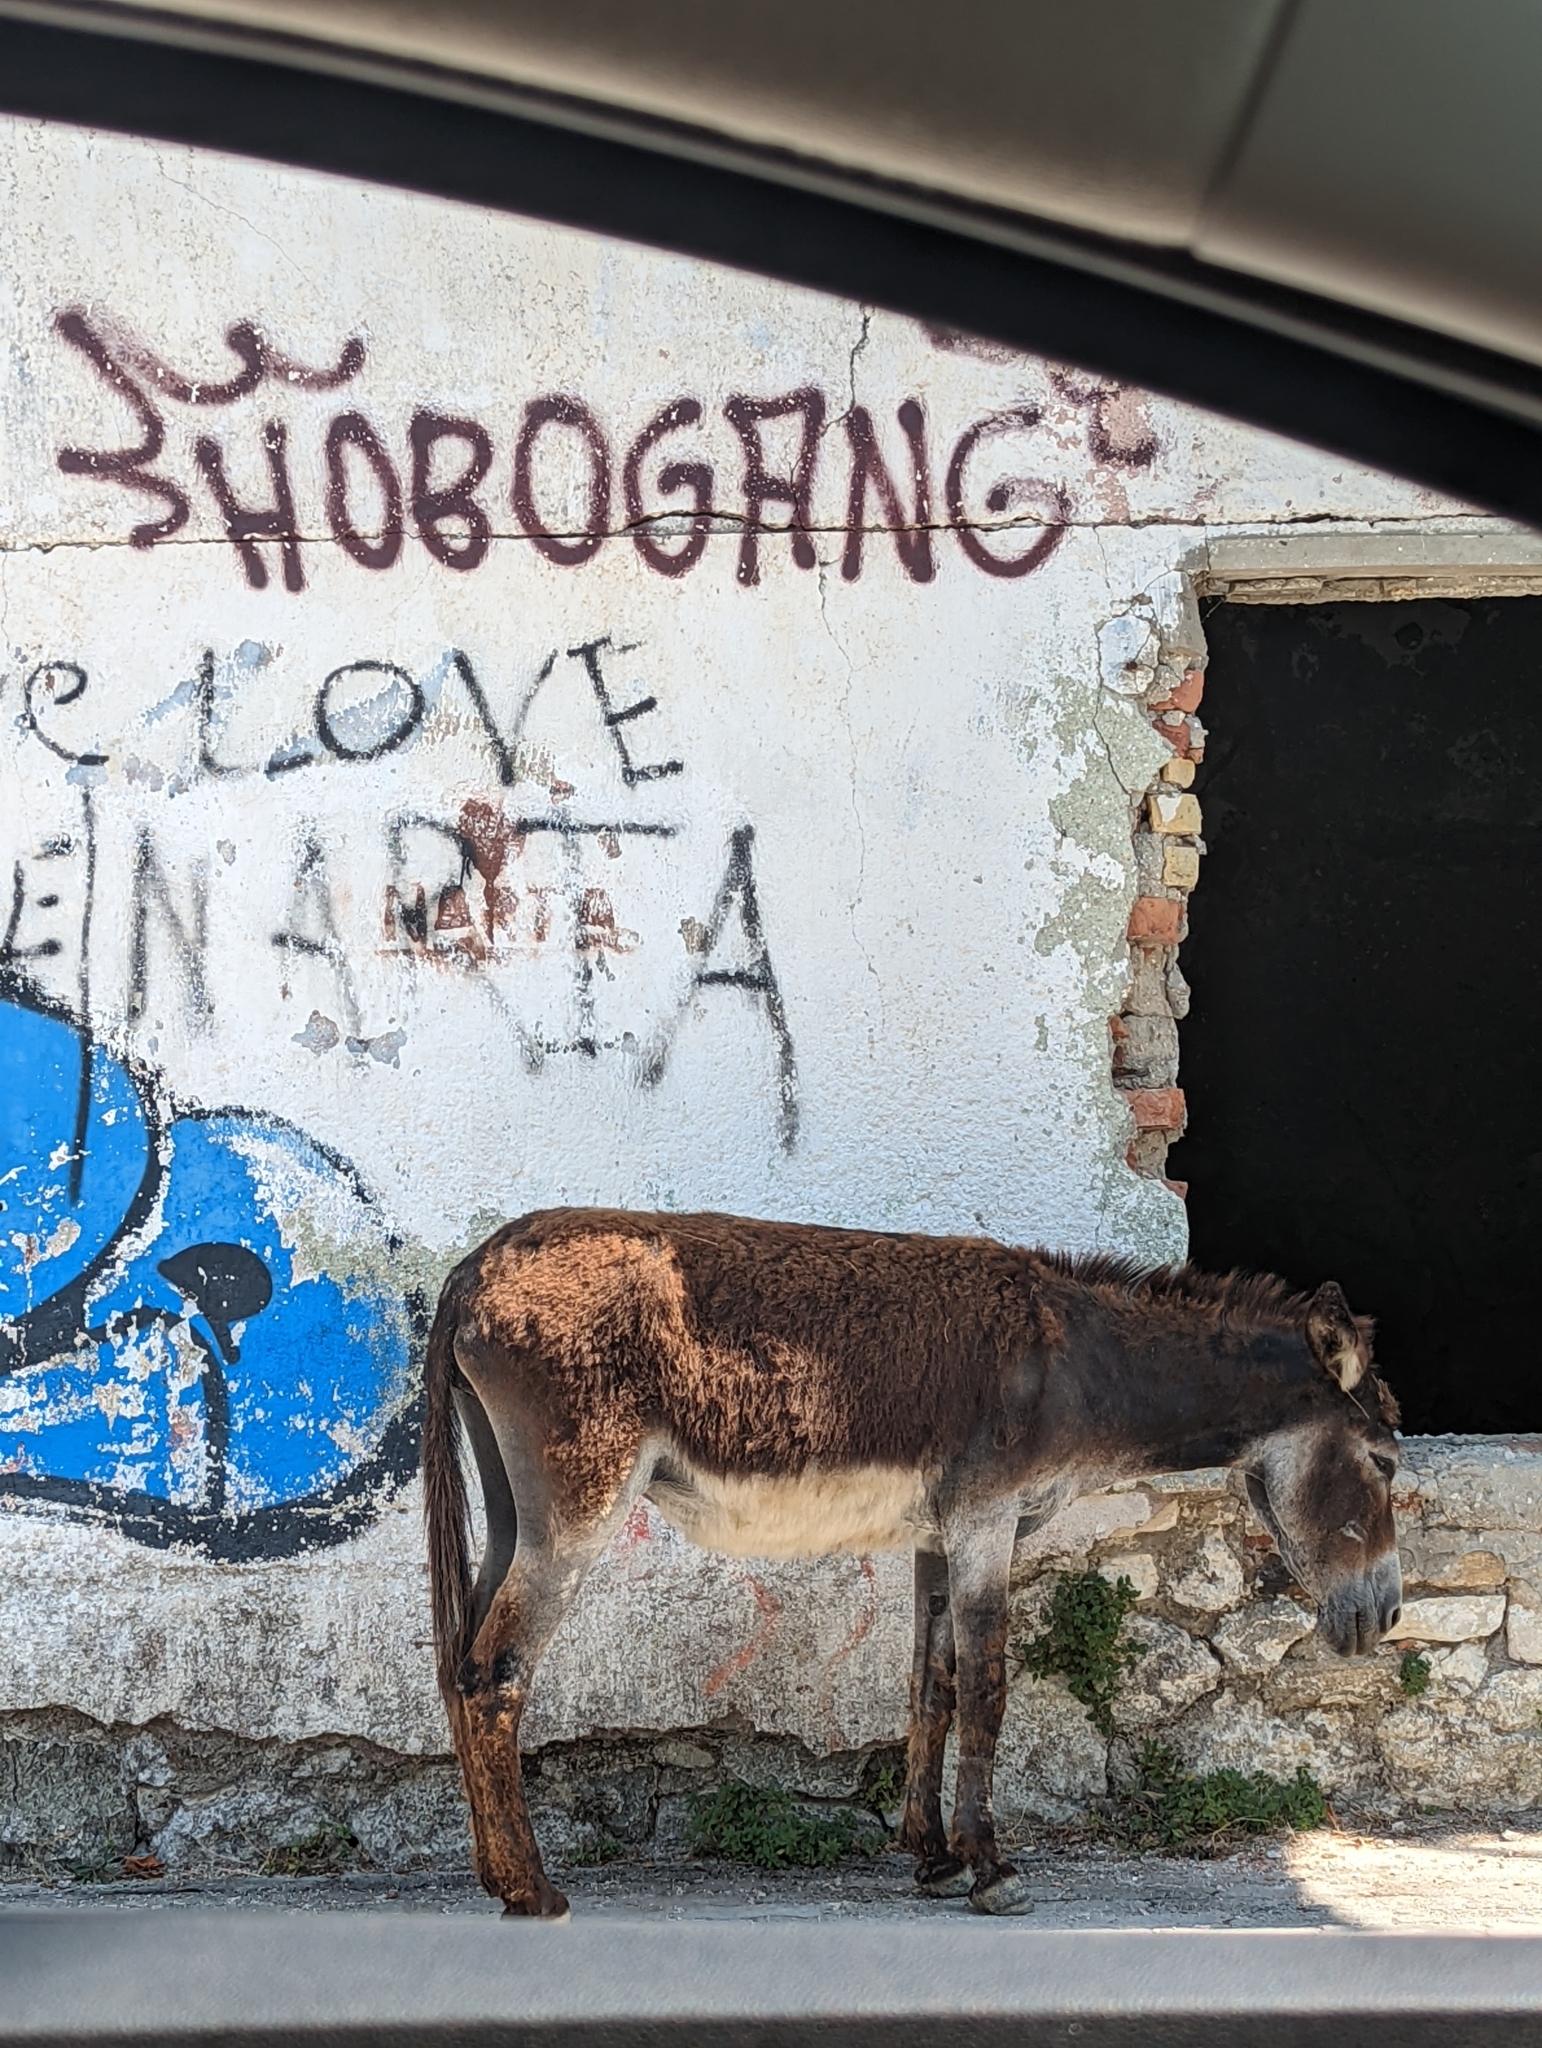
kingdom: Animalia
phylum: Chordata
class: Mammalia
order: Perissodactyla
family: Equidae
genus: Equus
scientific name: Equus asinus
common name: Ass
